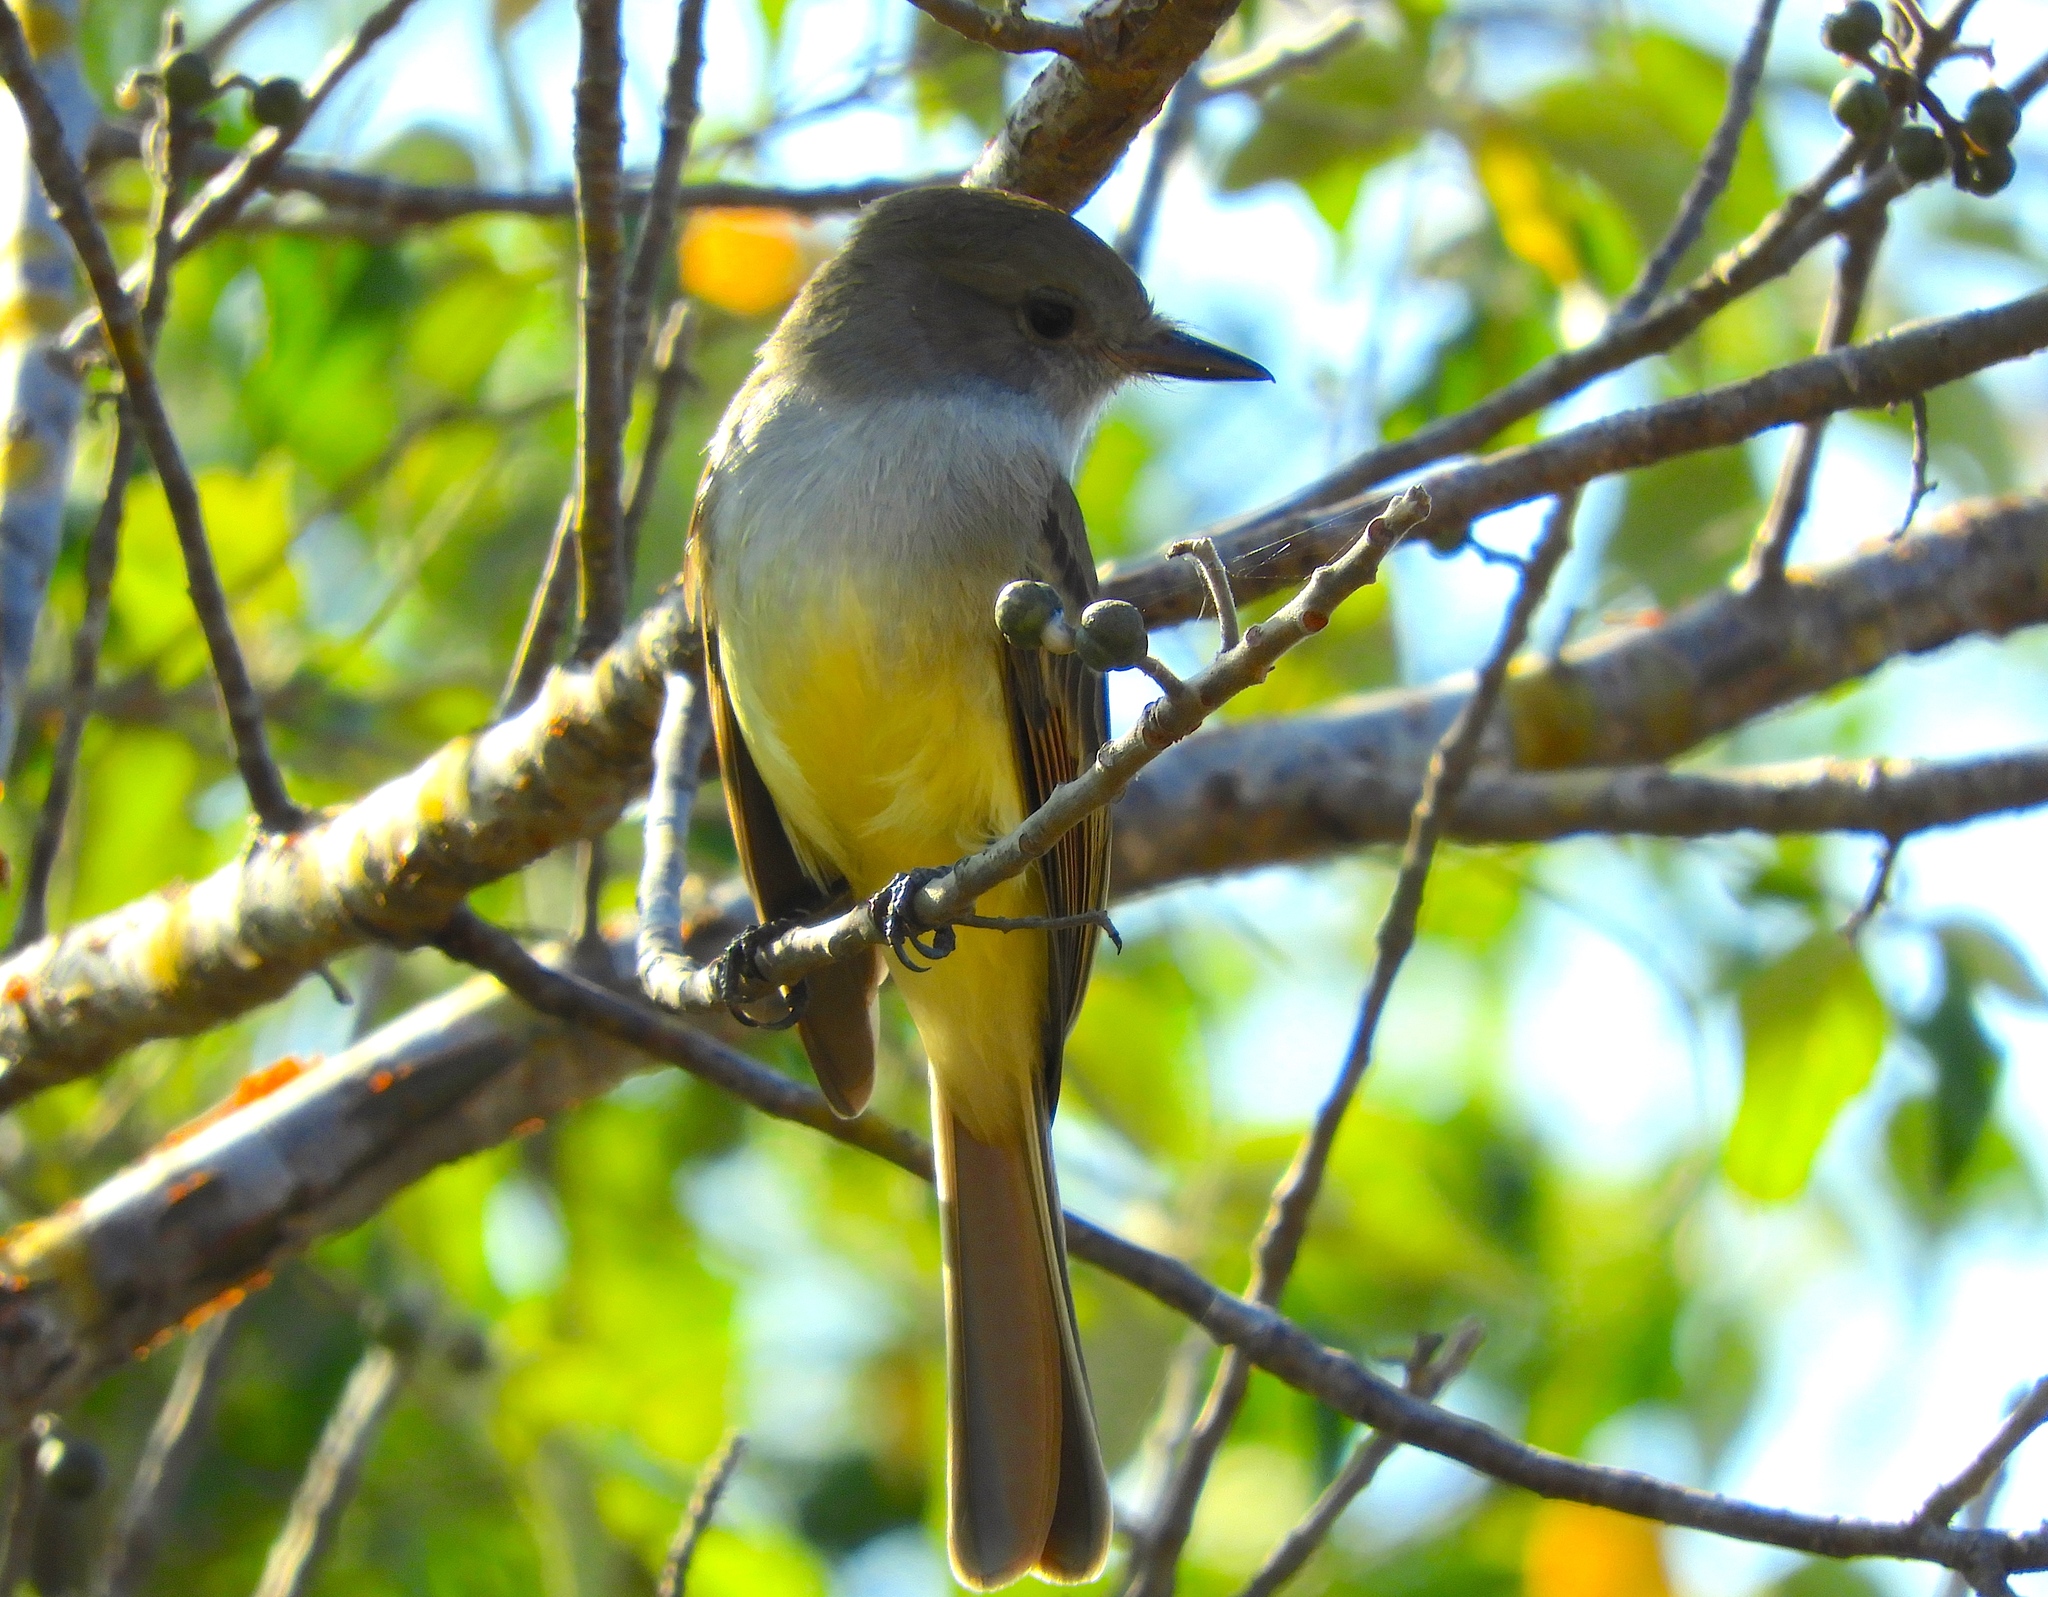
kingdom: Animalia
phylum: Chordata
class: Aves
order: Passeriformes
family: Tyrannidae
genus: Myiarchus
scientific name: Myiarchus nuttingi
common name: Nutting's flycatcher
